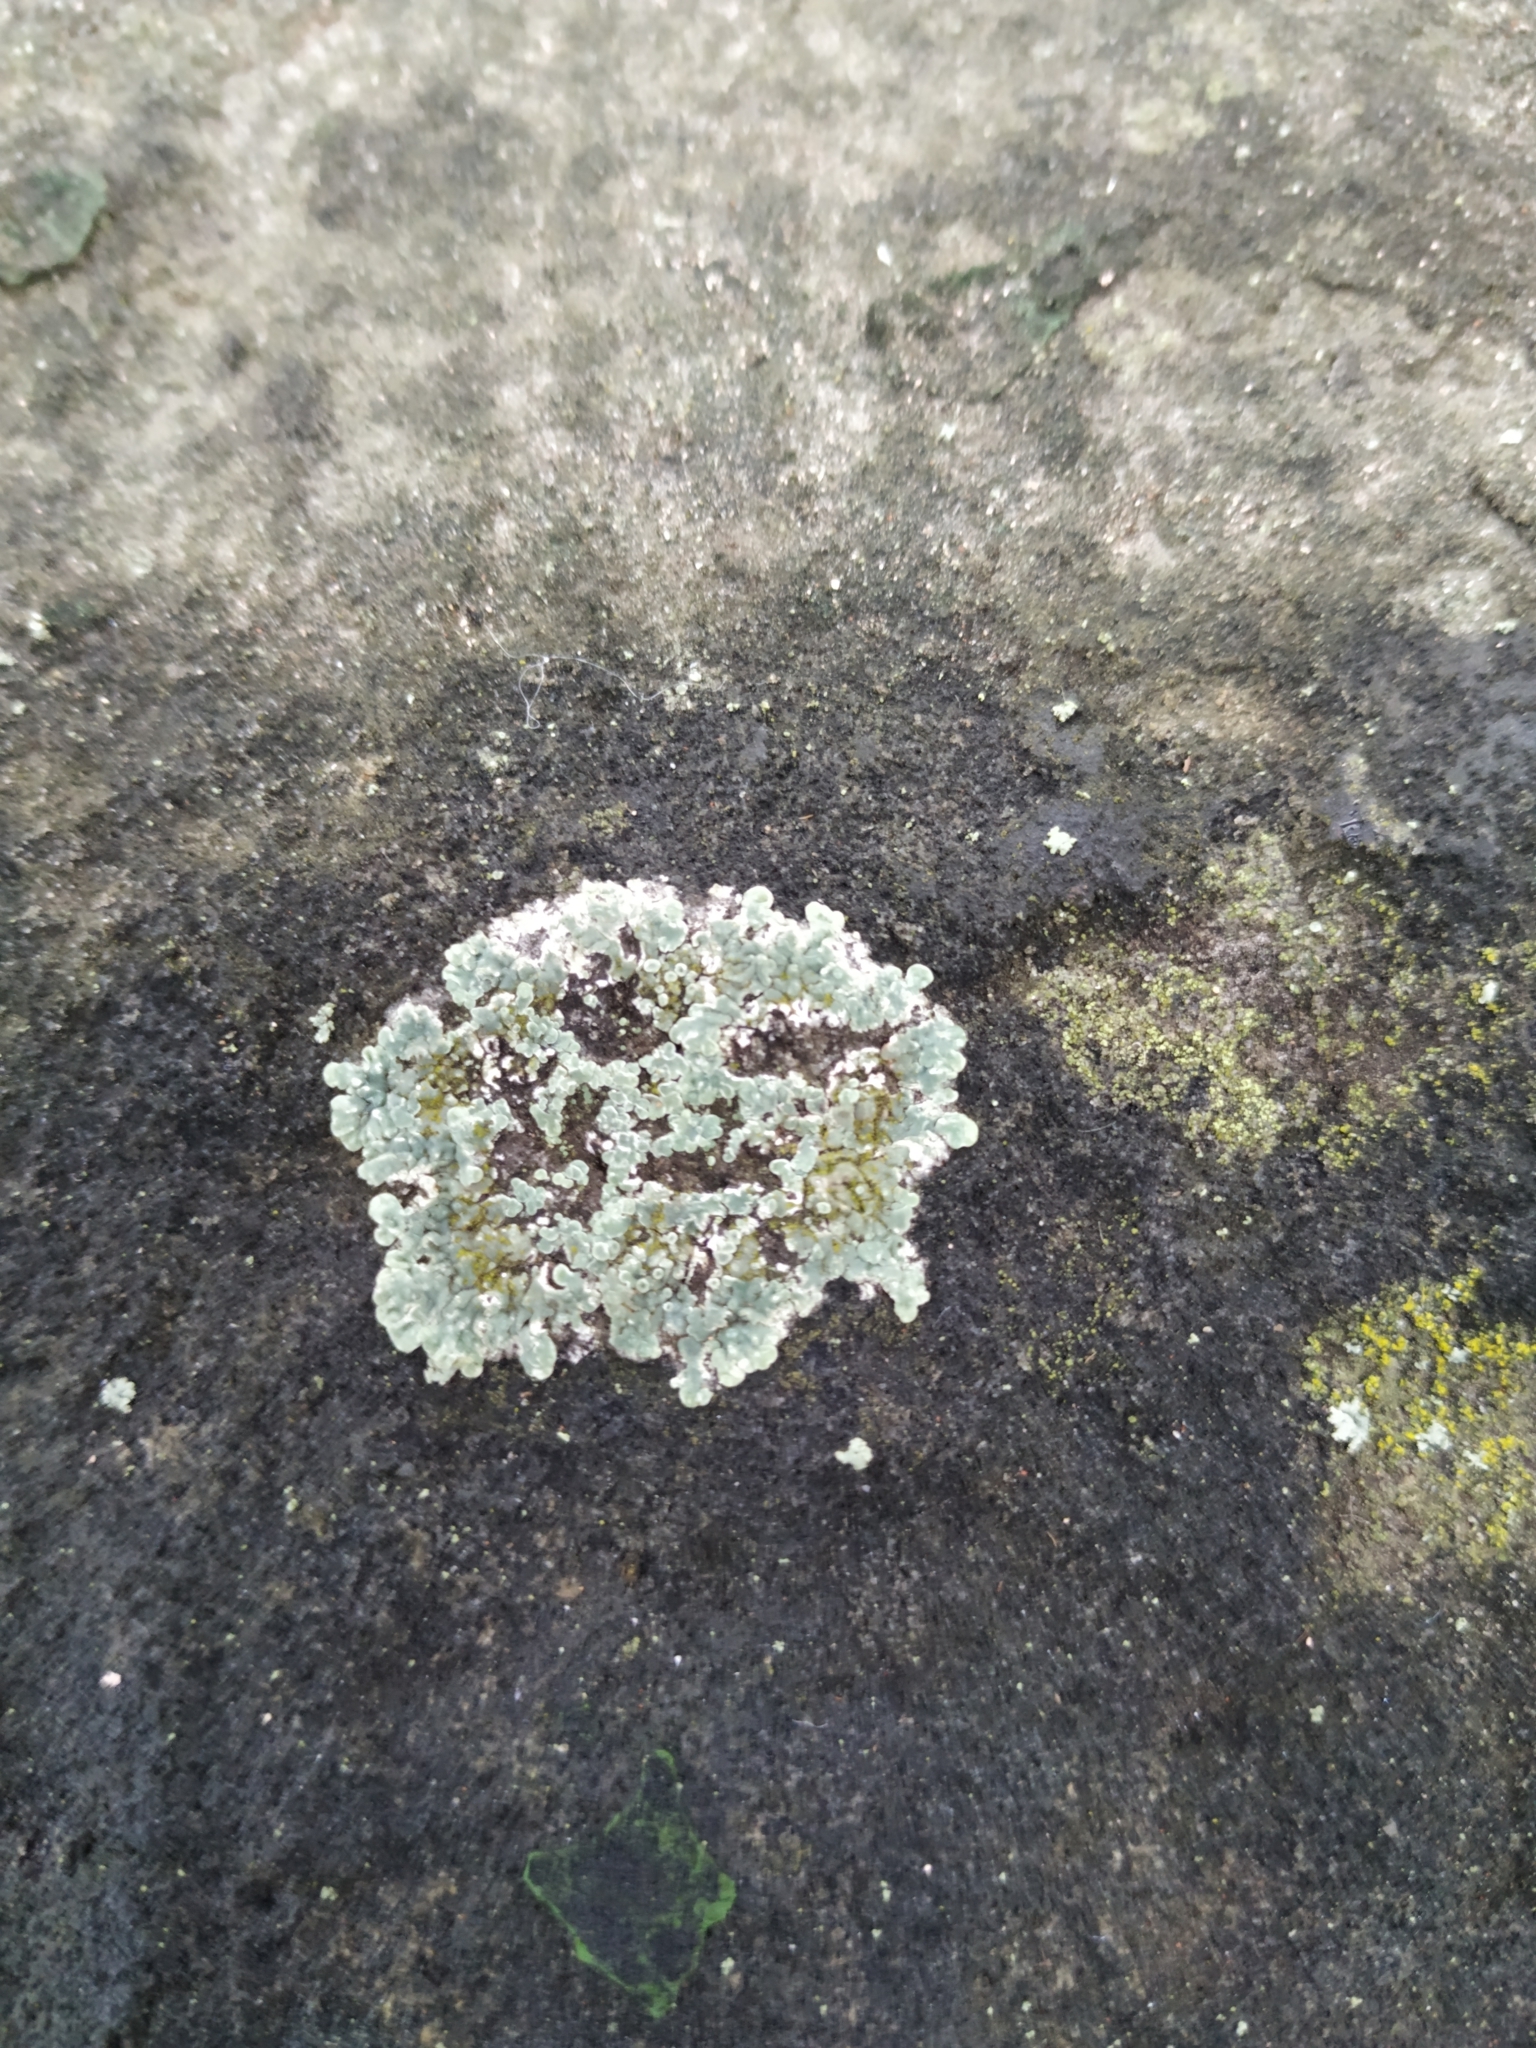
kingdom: Fungi
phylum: Ascomycota
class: Lecanoromycetes
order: Lecanorales
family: Lecanoraceae
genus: Protoparmeliopsis
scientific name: Protoparmeliopsis muralis
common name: Stonewall rim lichen
